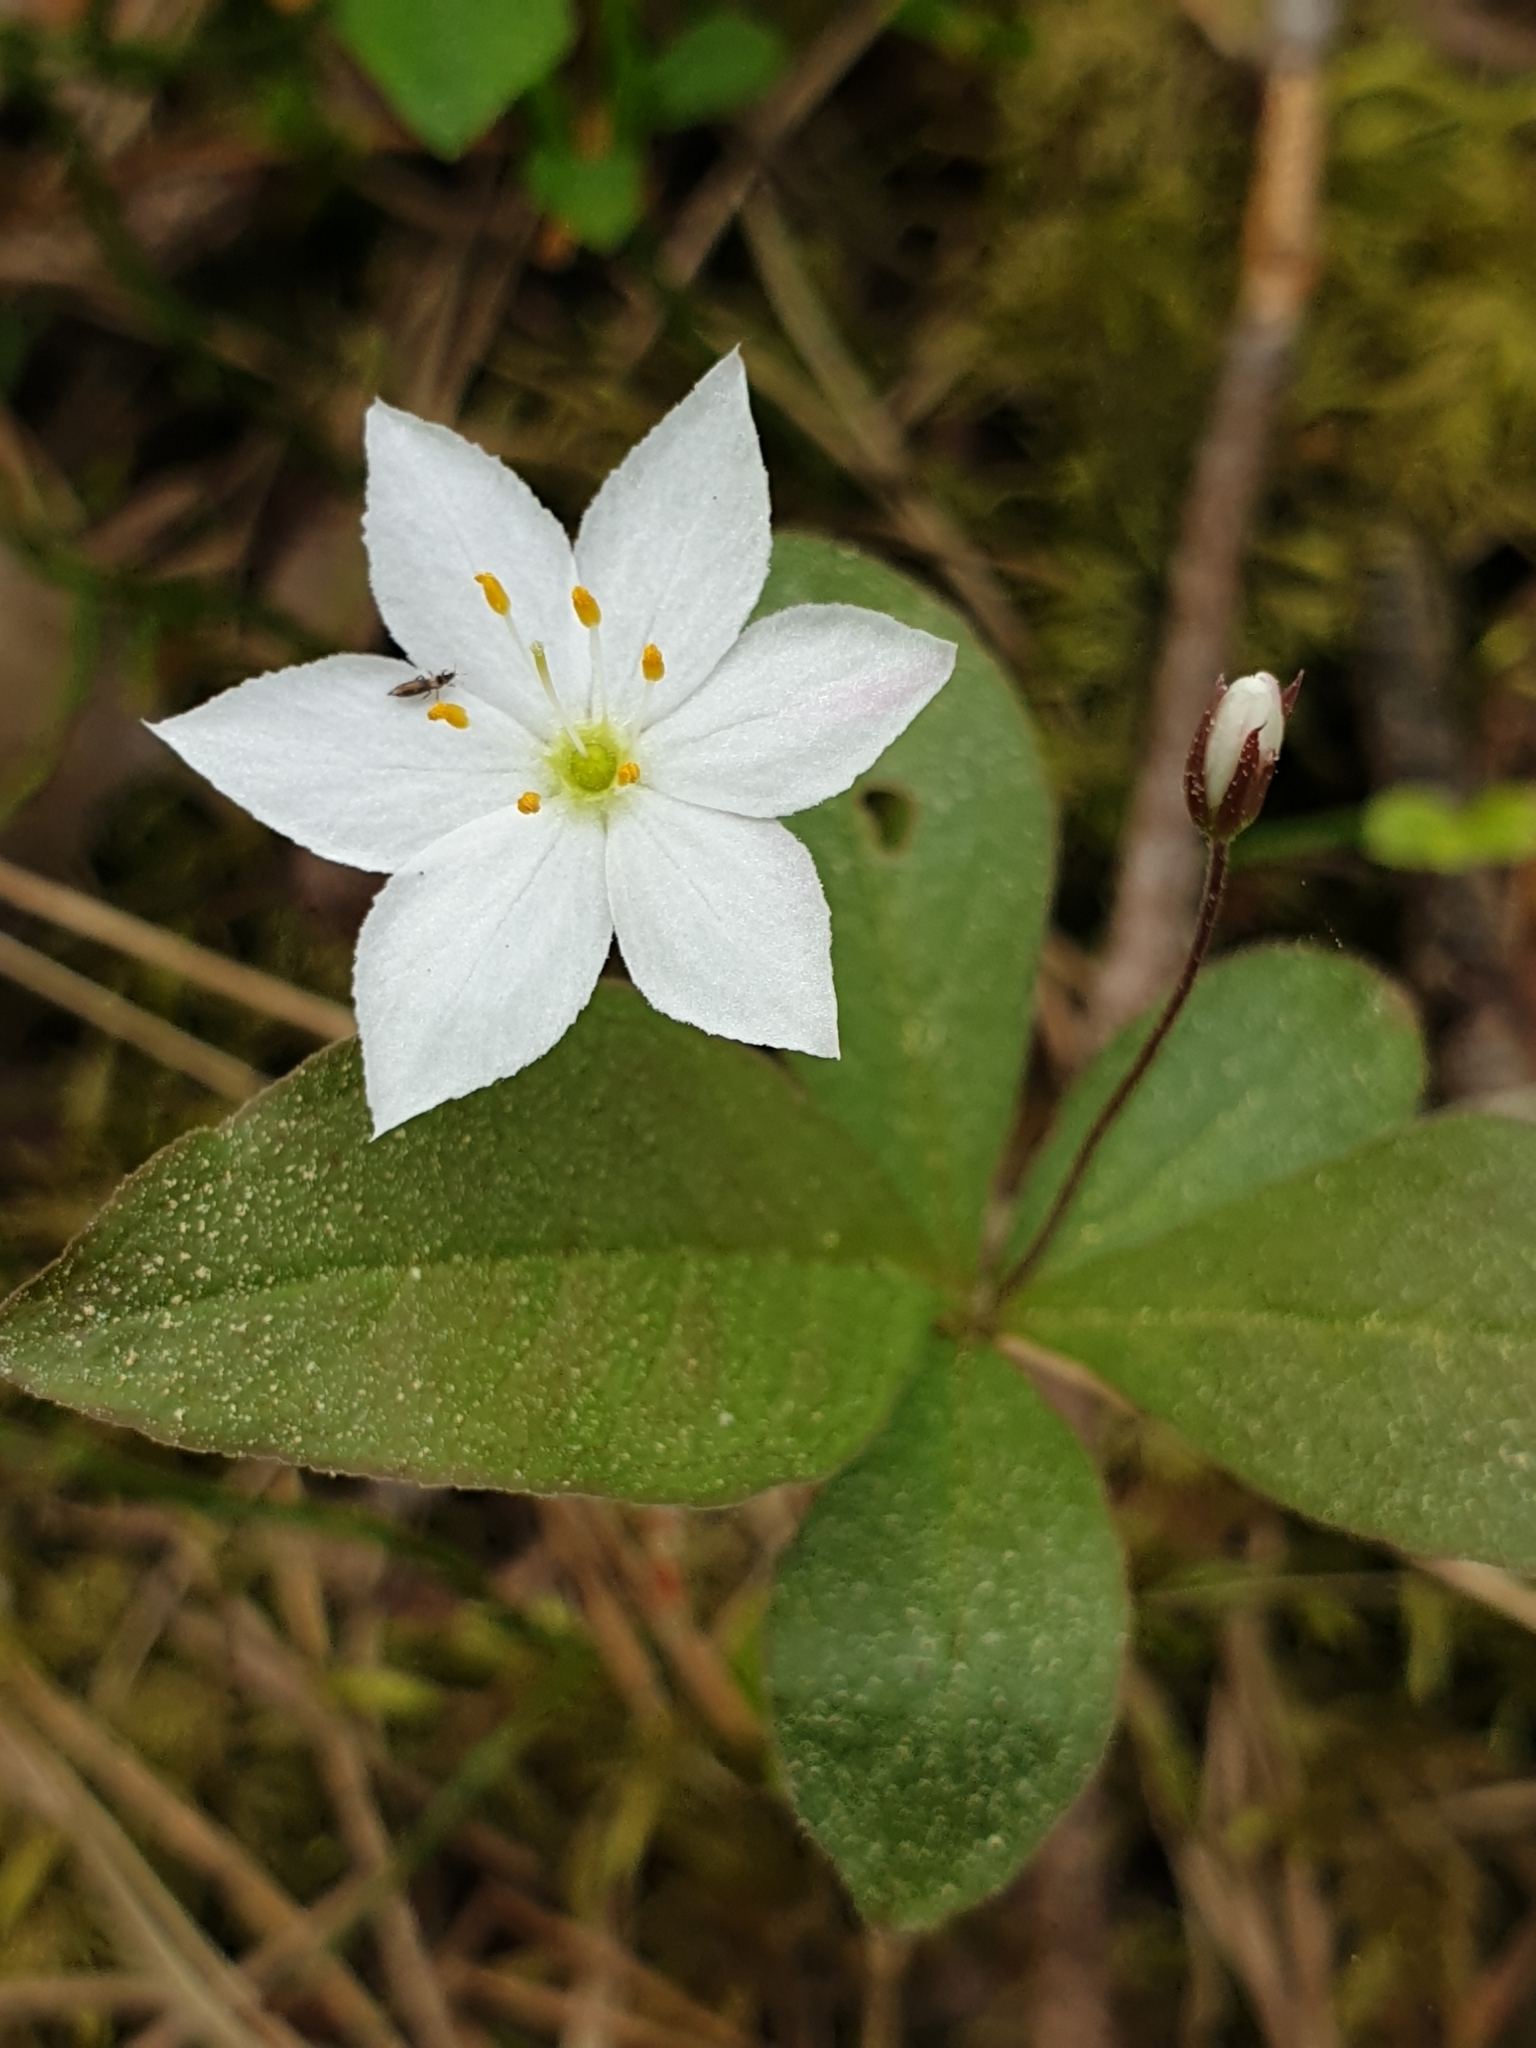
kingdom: Plantae
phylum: Tracheophyta
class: Magnoliopsida
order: Ericales
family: Primulaceae
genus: Lysimachia
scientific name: Lysimachia europaea
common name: Arctic starflower
